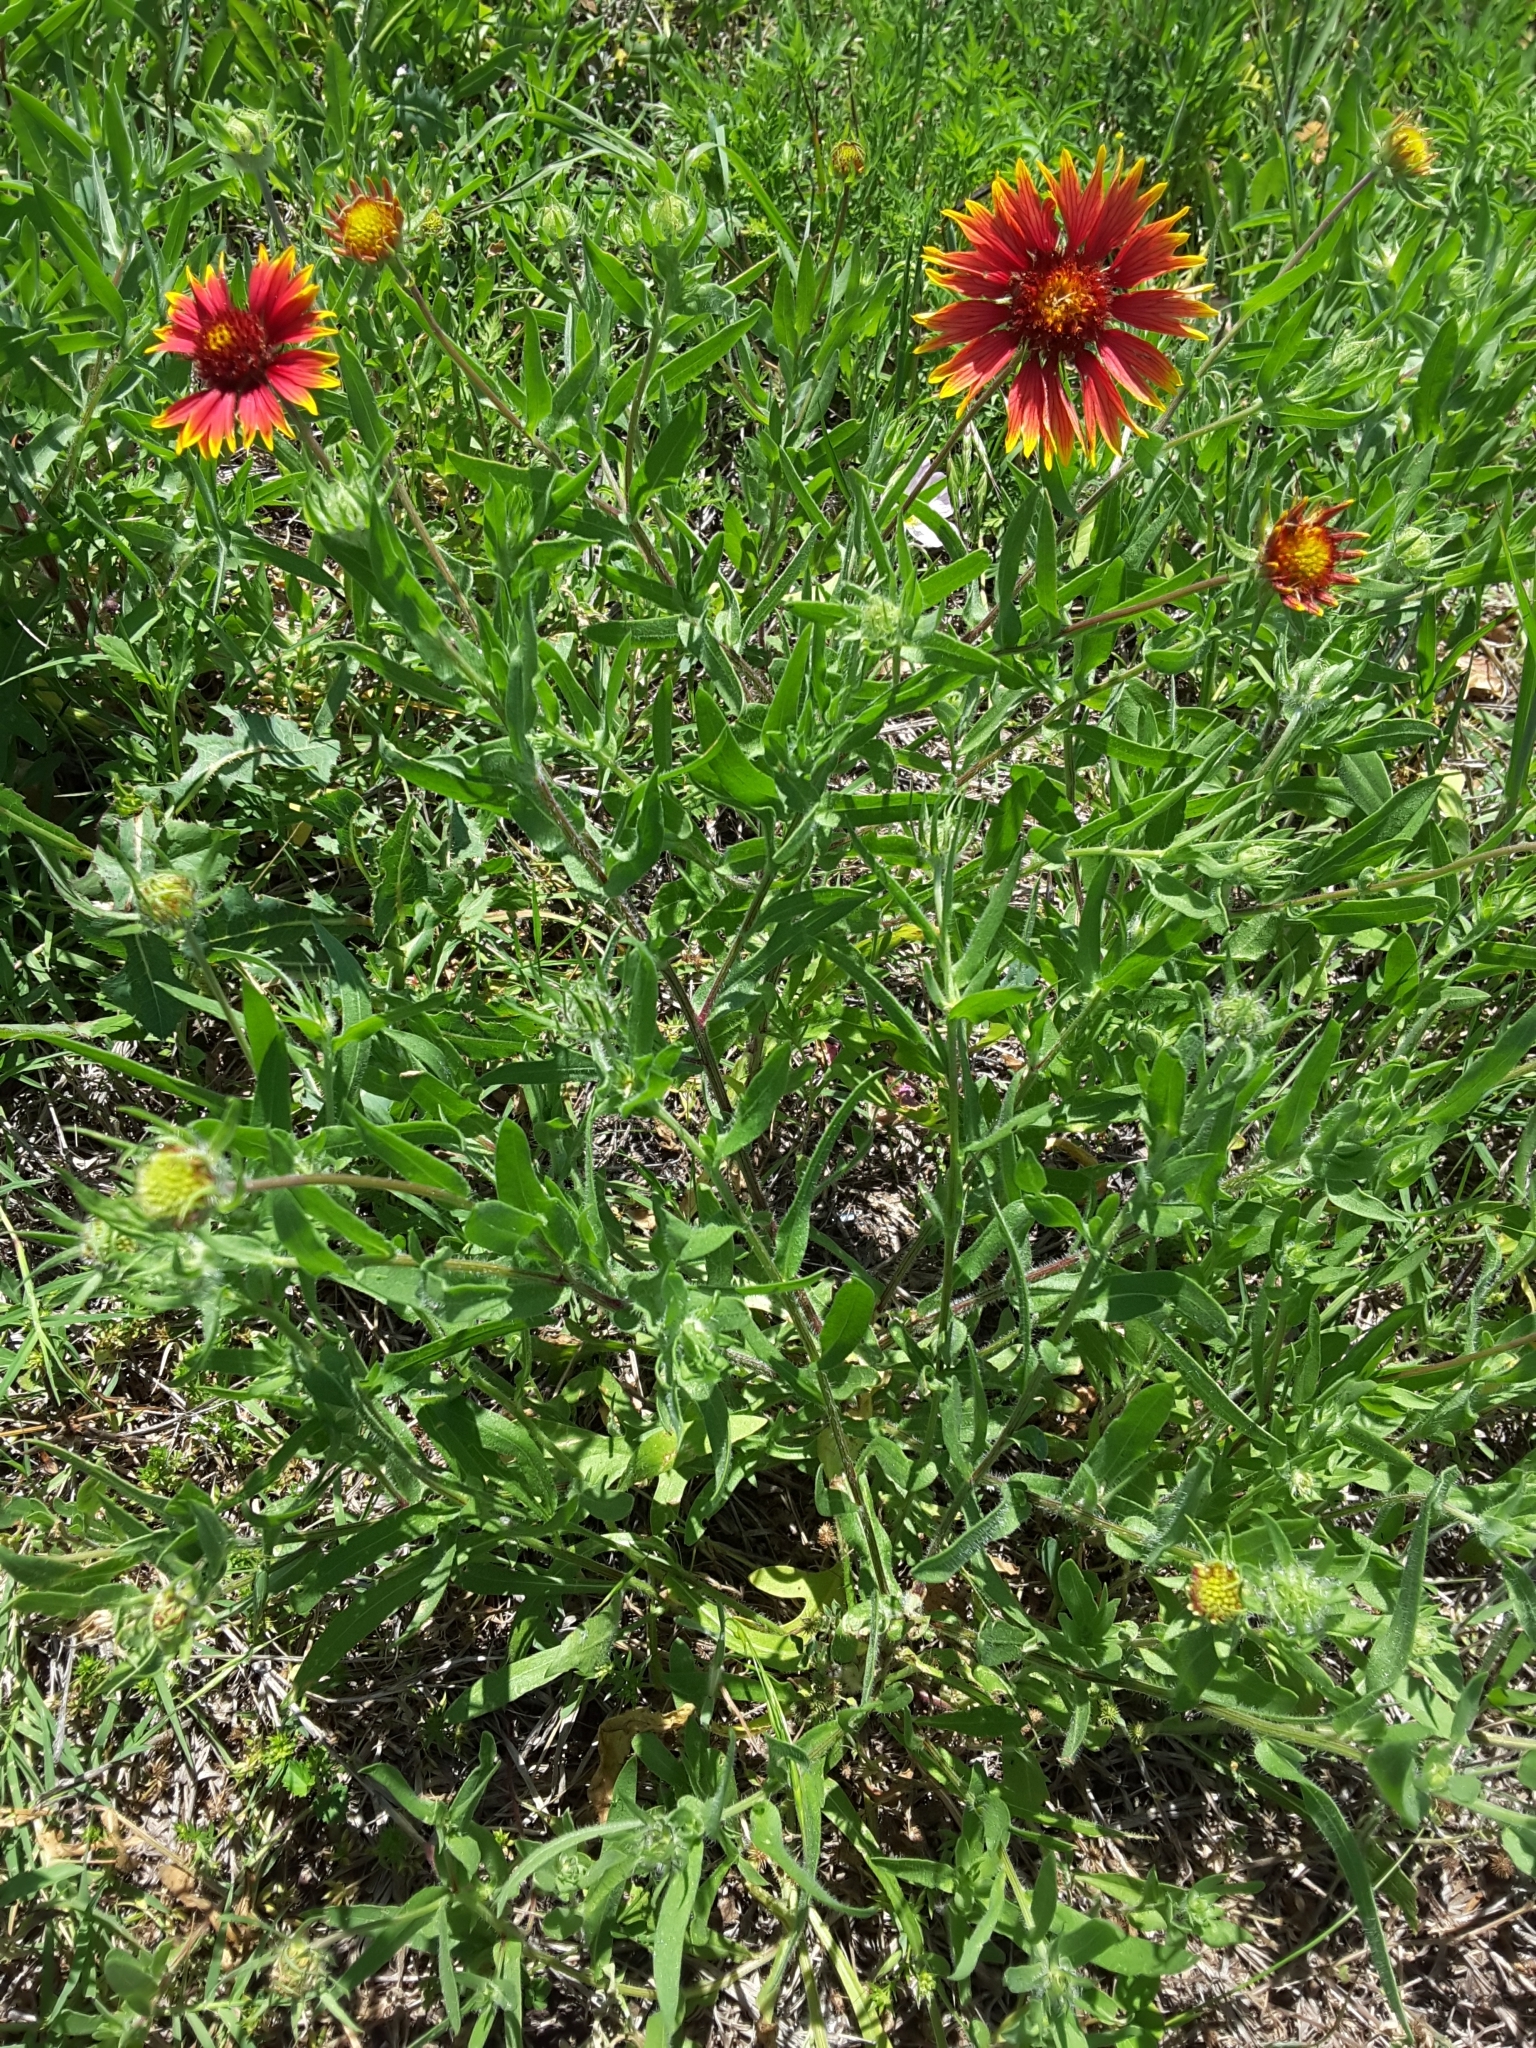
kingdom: Plantae
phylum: Tracheophyta
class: Magnoliopsida
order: Asterales
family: Asteraceae
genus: Gaillardia
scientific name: Gaillardia pulchella
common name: Firewheel
